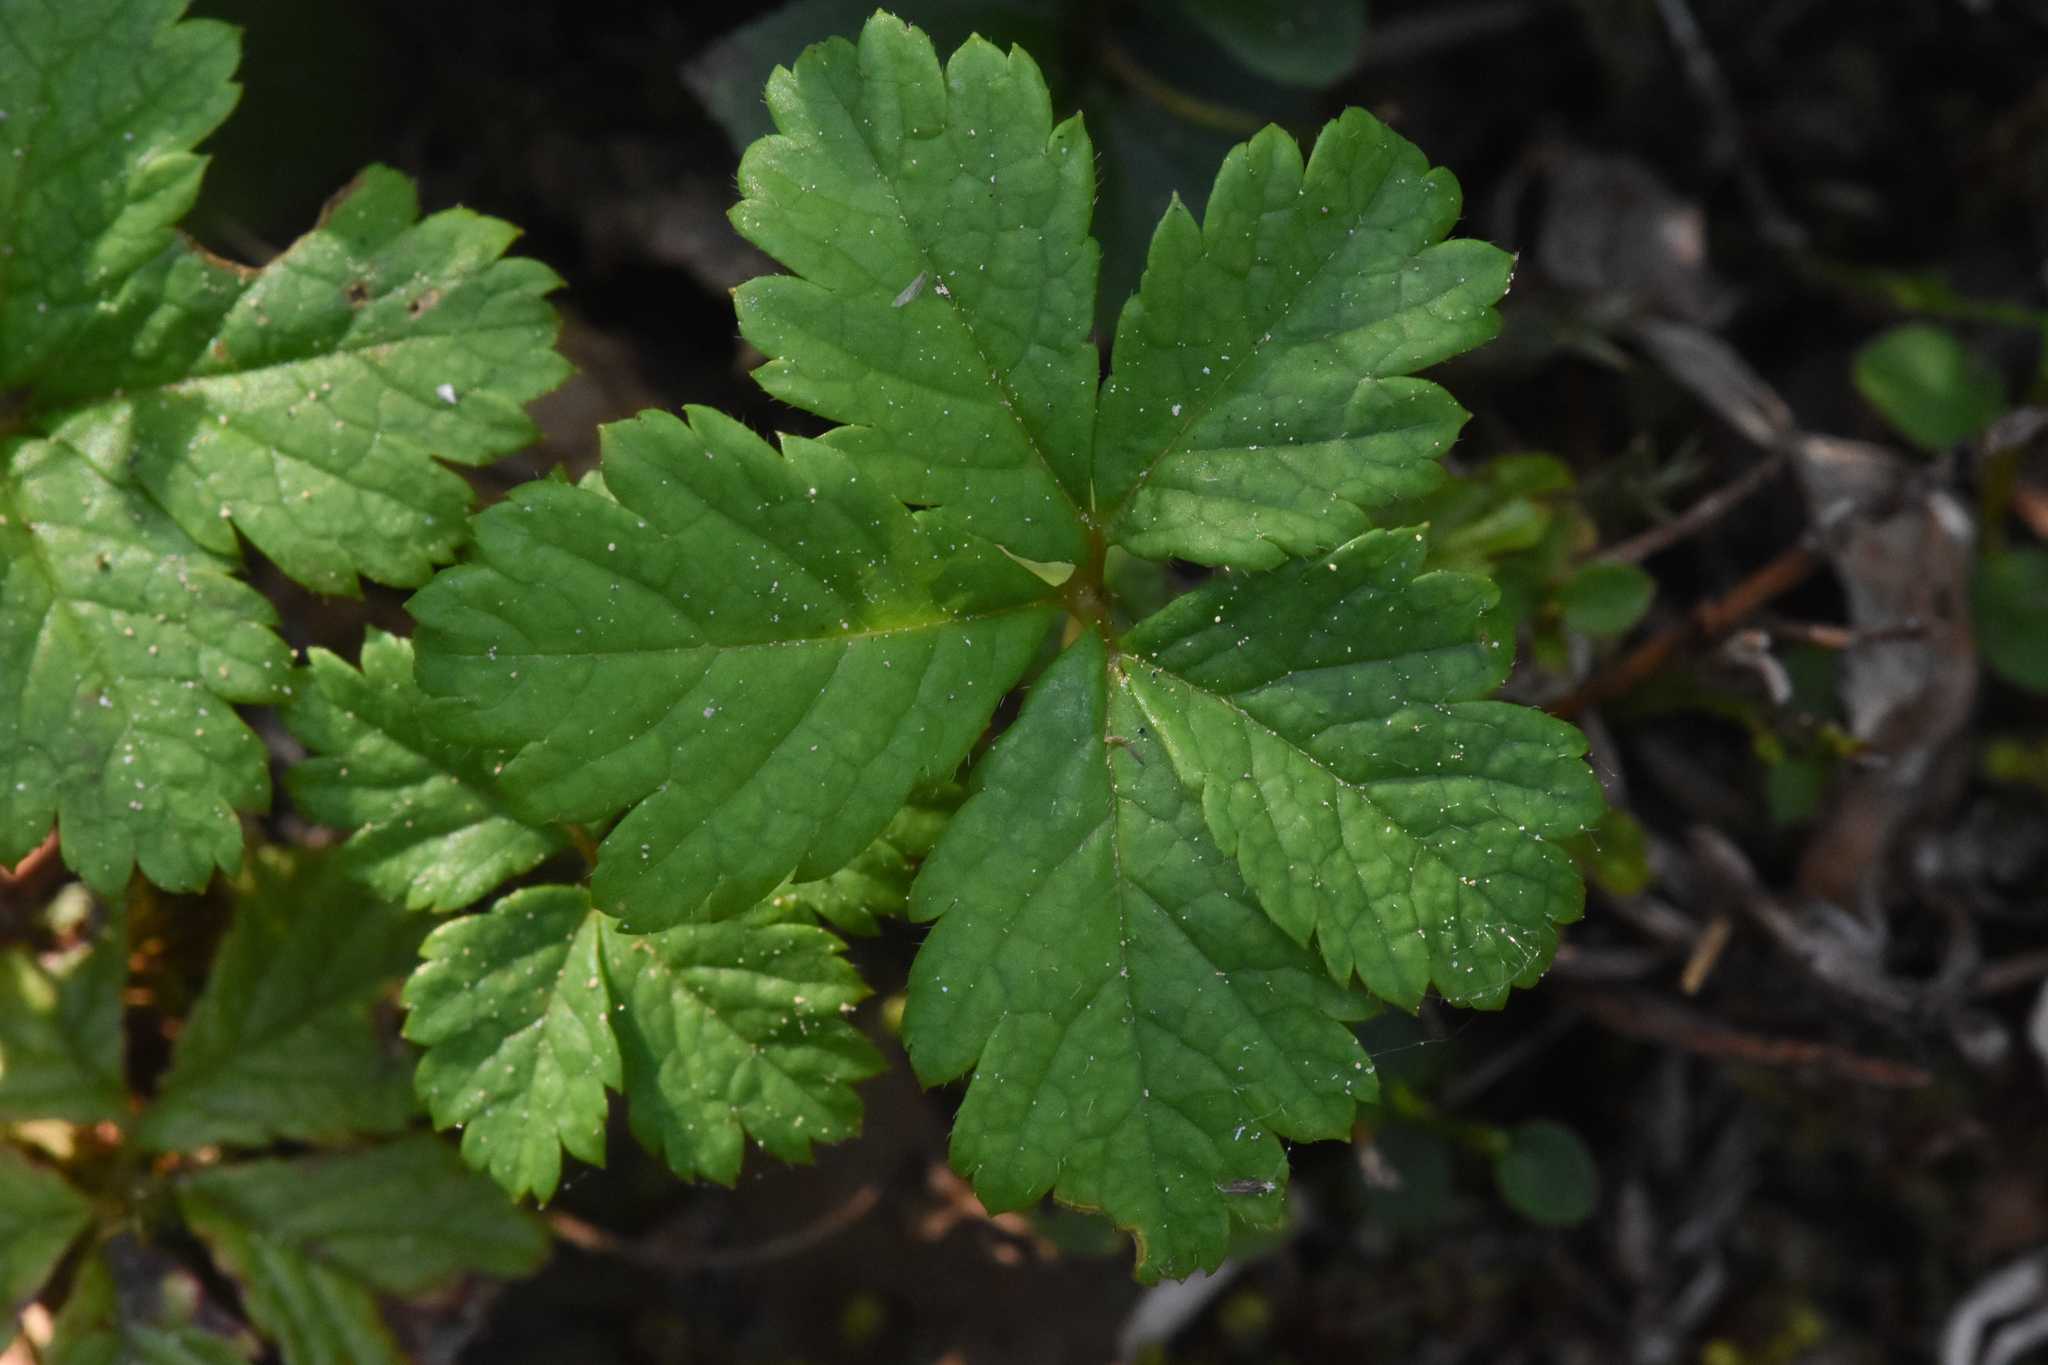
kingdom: Plantae
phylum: Tracheophyta
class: Magnoliopsida
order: Rosales
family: Rosaceae
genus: Rubus
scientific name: Rubus pedatus
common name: Creeping raspberry
